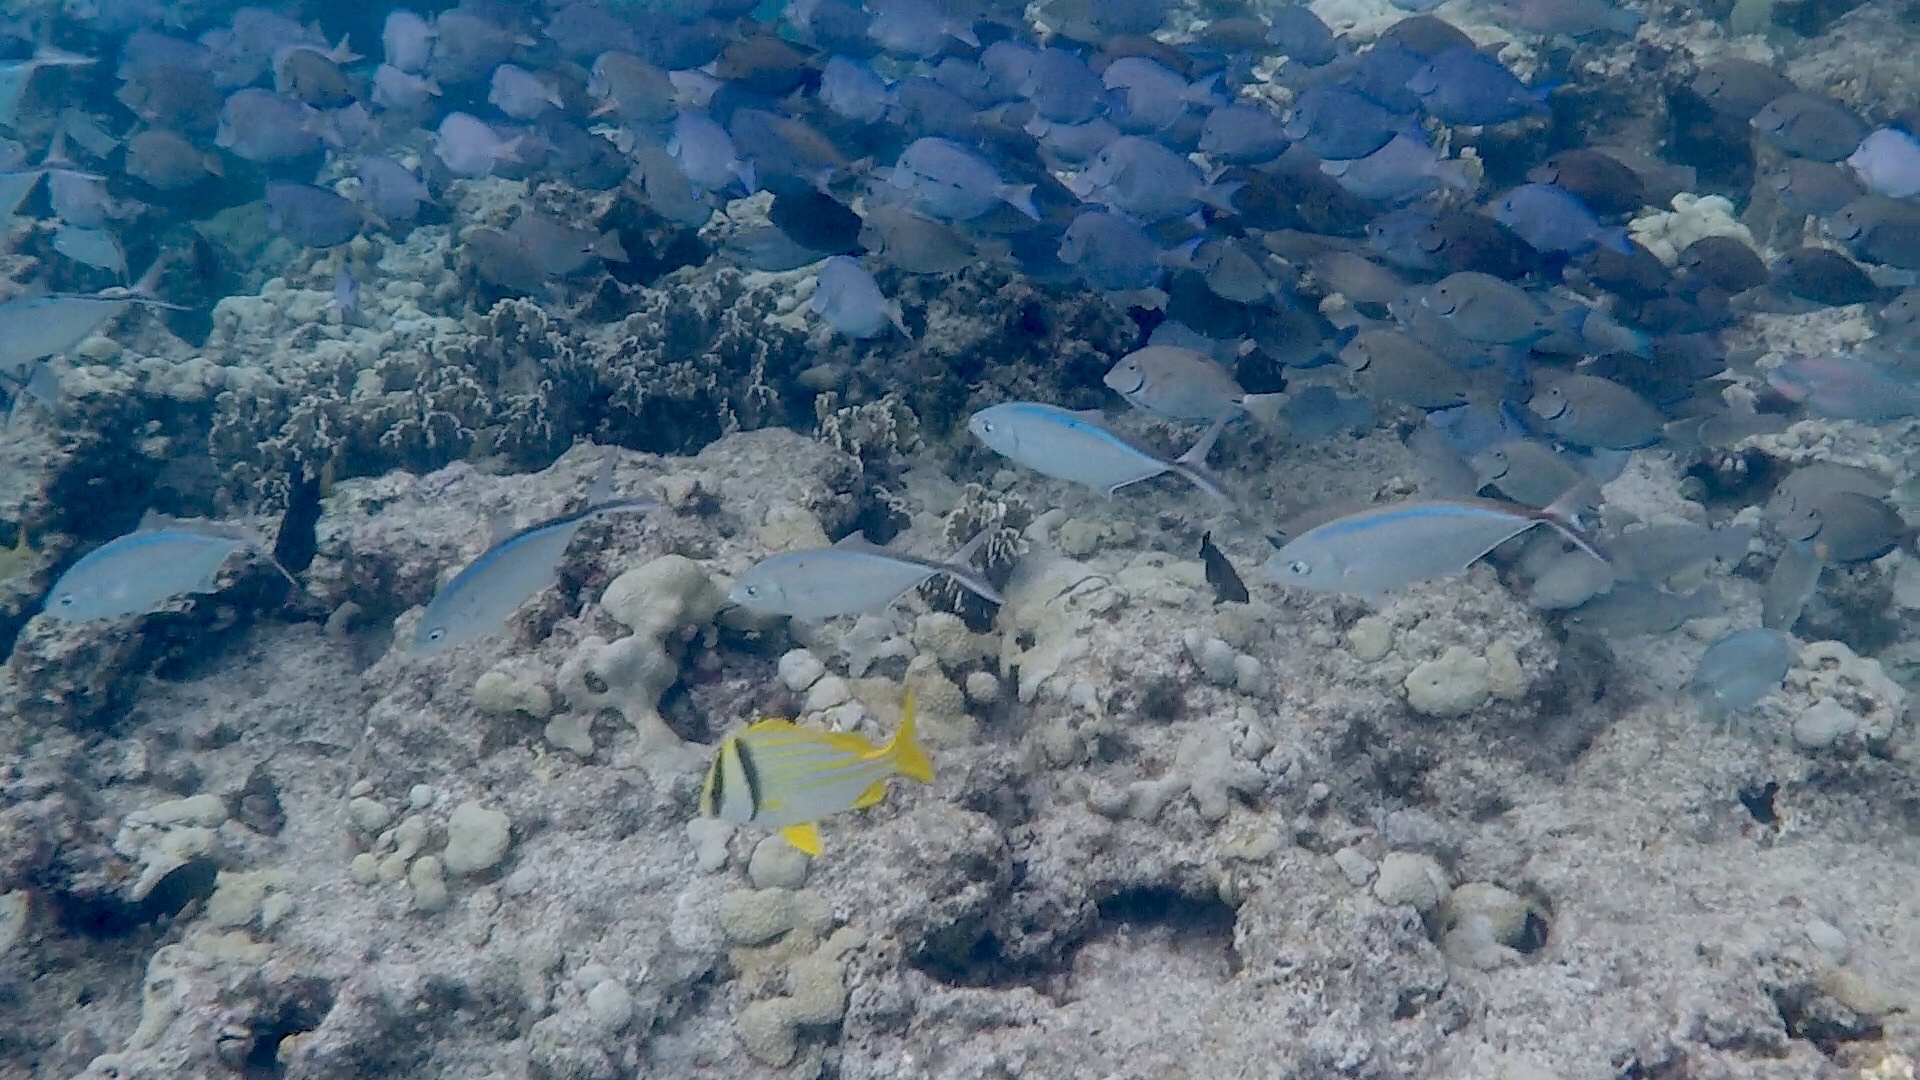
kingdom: Animalia
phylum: Chordata
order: Perciformes
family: Haemulidae
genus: Anisotremus
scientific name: Anisotremus virginicus
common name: Porkfish
